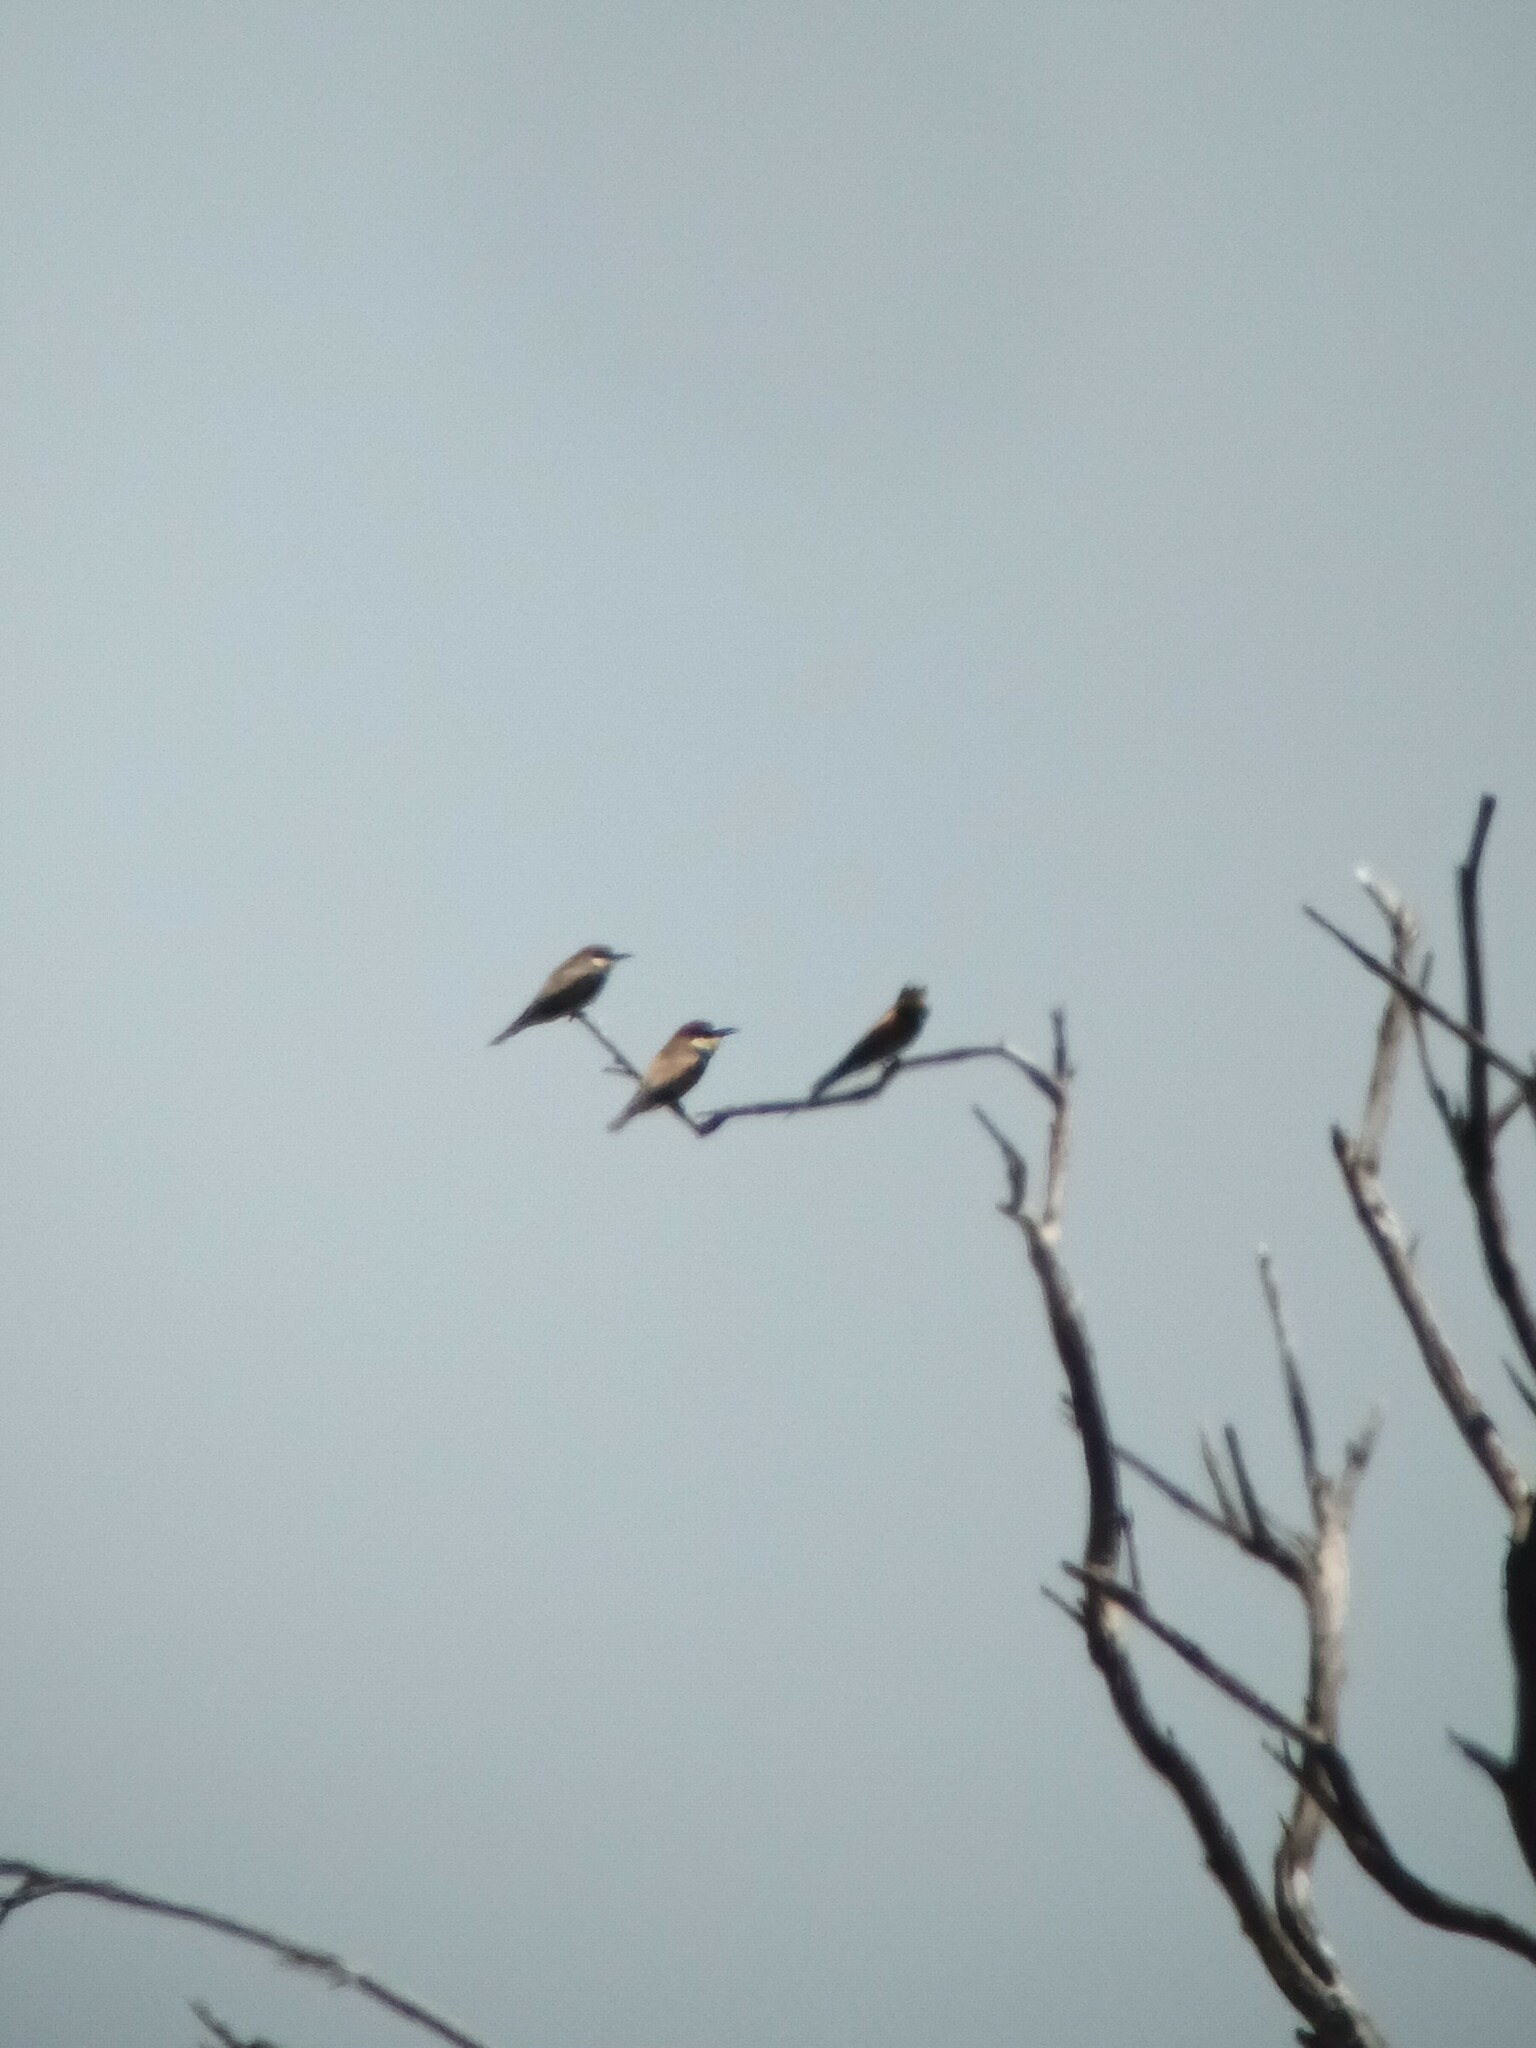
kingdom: Animalia
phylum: Chordata
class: Aves
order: Coraciiformes
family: Meropidae
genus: Merops
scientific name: Merops apiaster
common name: European bee-eater
